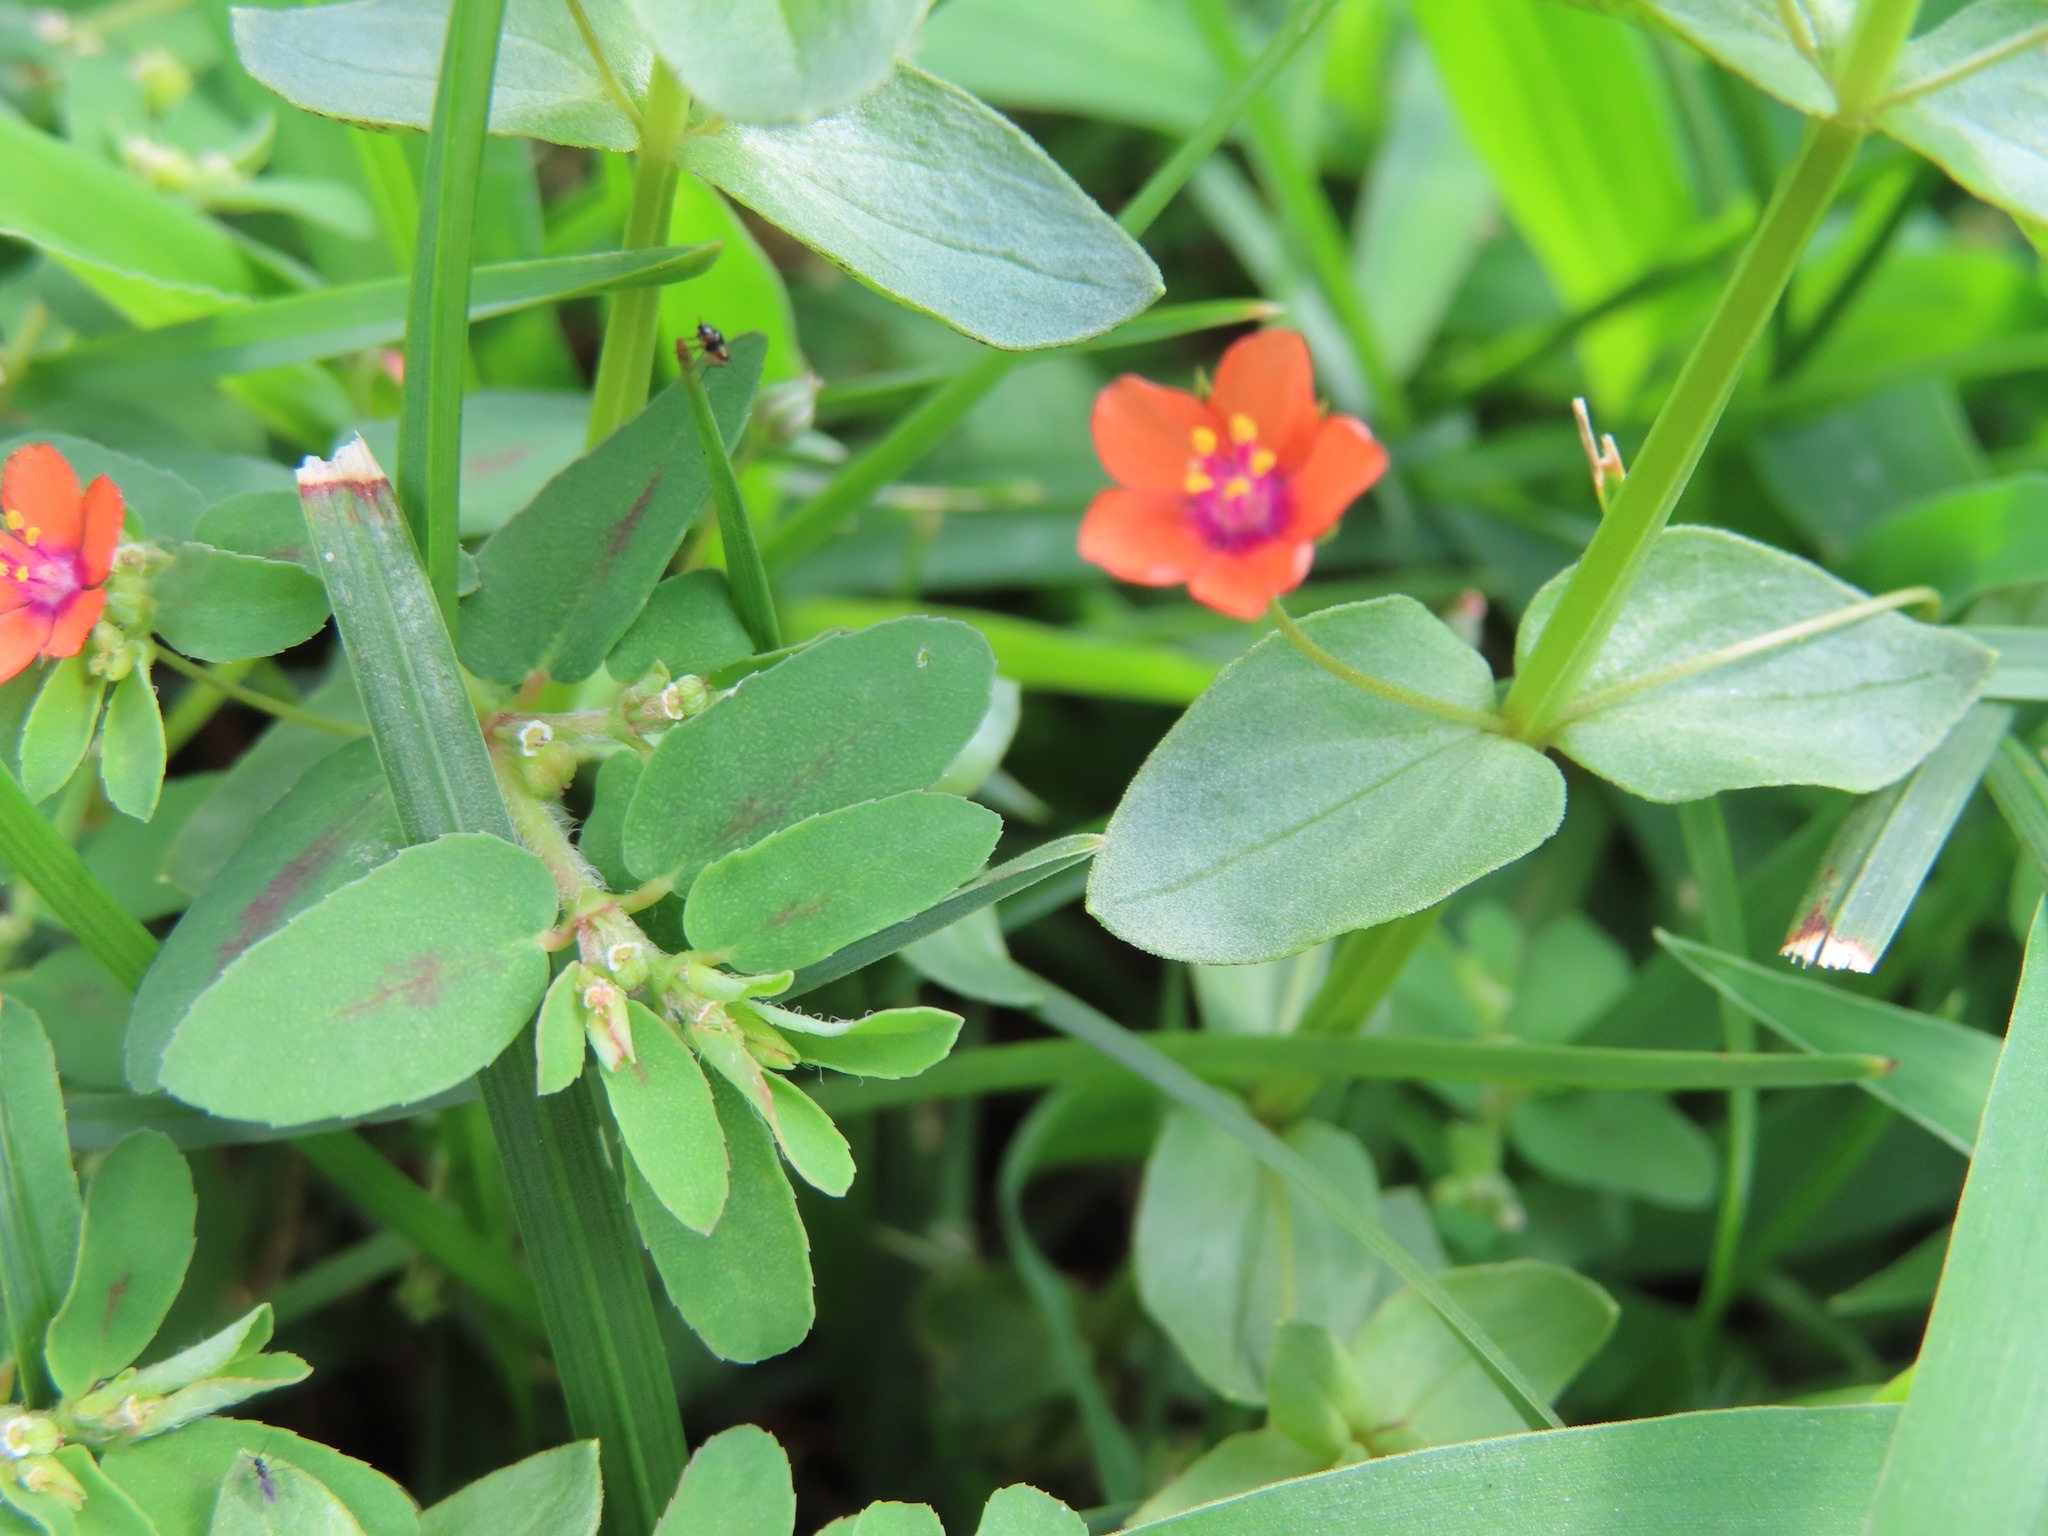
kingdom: Plantae
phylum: Tracheophyta
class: Magnoliopsida
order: Ericales
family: Primulaceae
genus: Lysimachia
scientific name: Lysimachia arvensis
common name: Scarlet pimpernel
